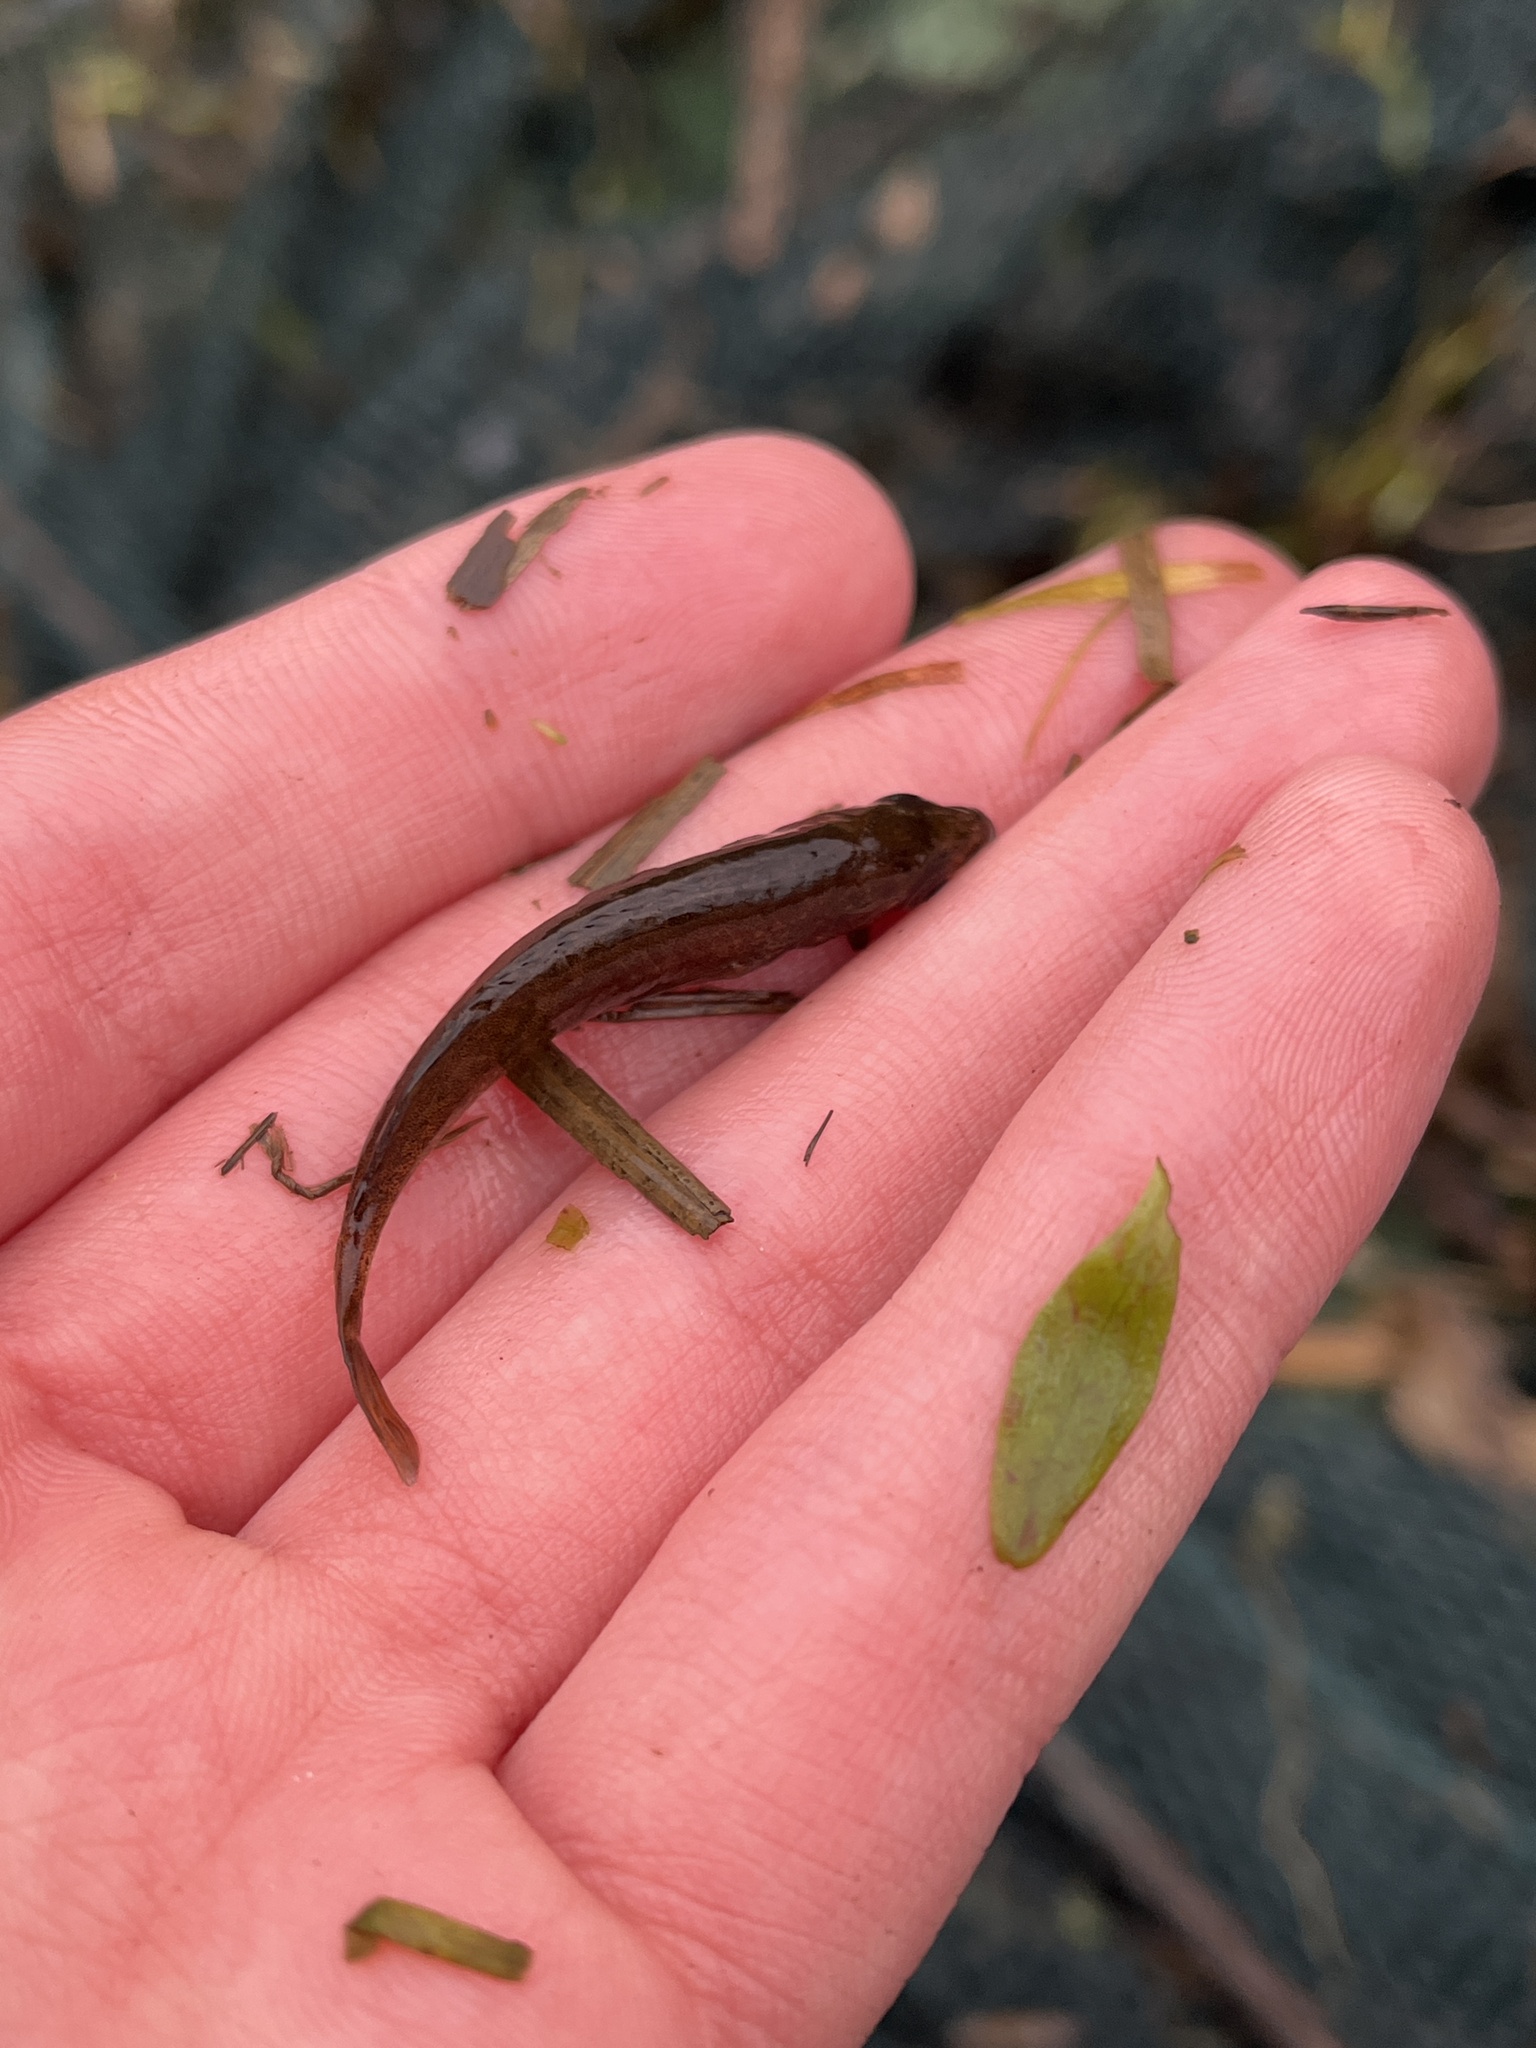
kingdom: Animalia
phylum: Chordata
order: Gasterosteiformes
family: Gasterosteidae
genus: Pungitius
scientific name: Pungitius pungitius
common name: Nine-spined stickleback
